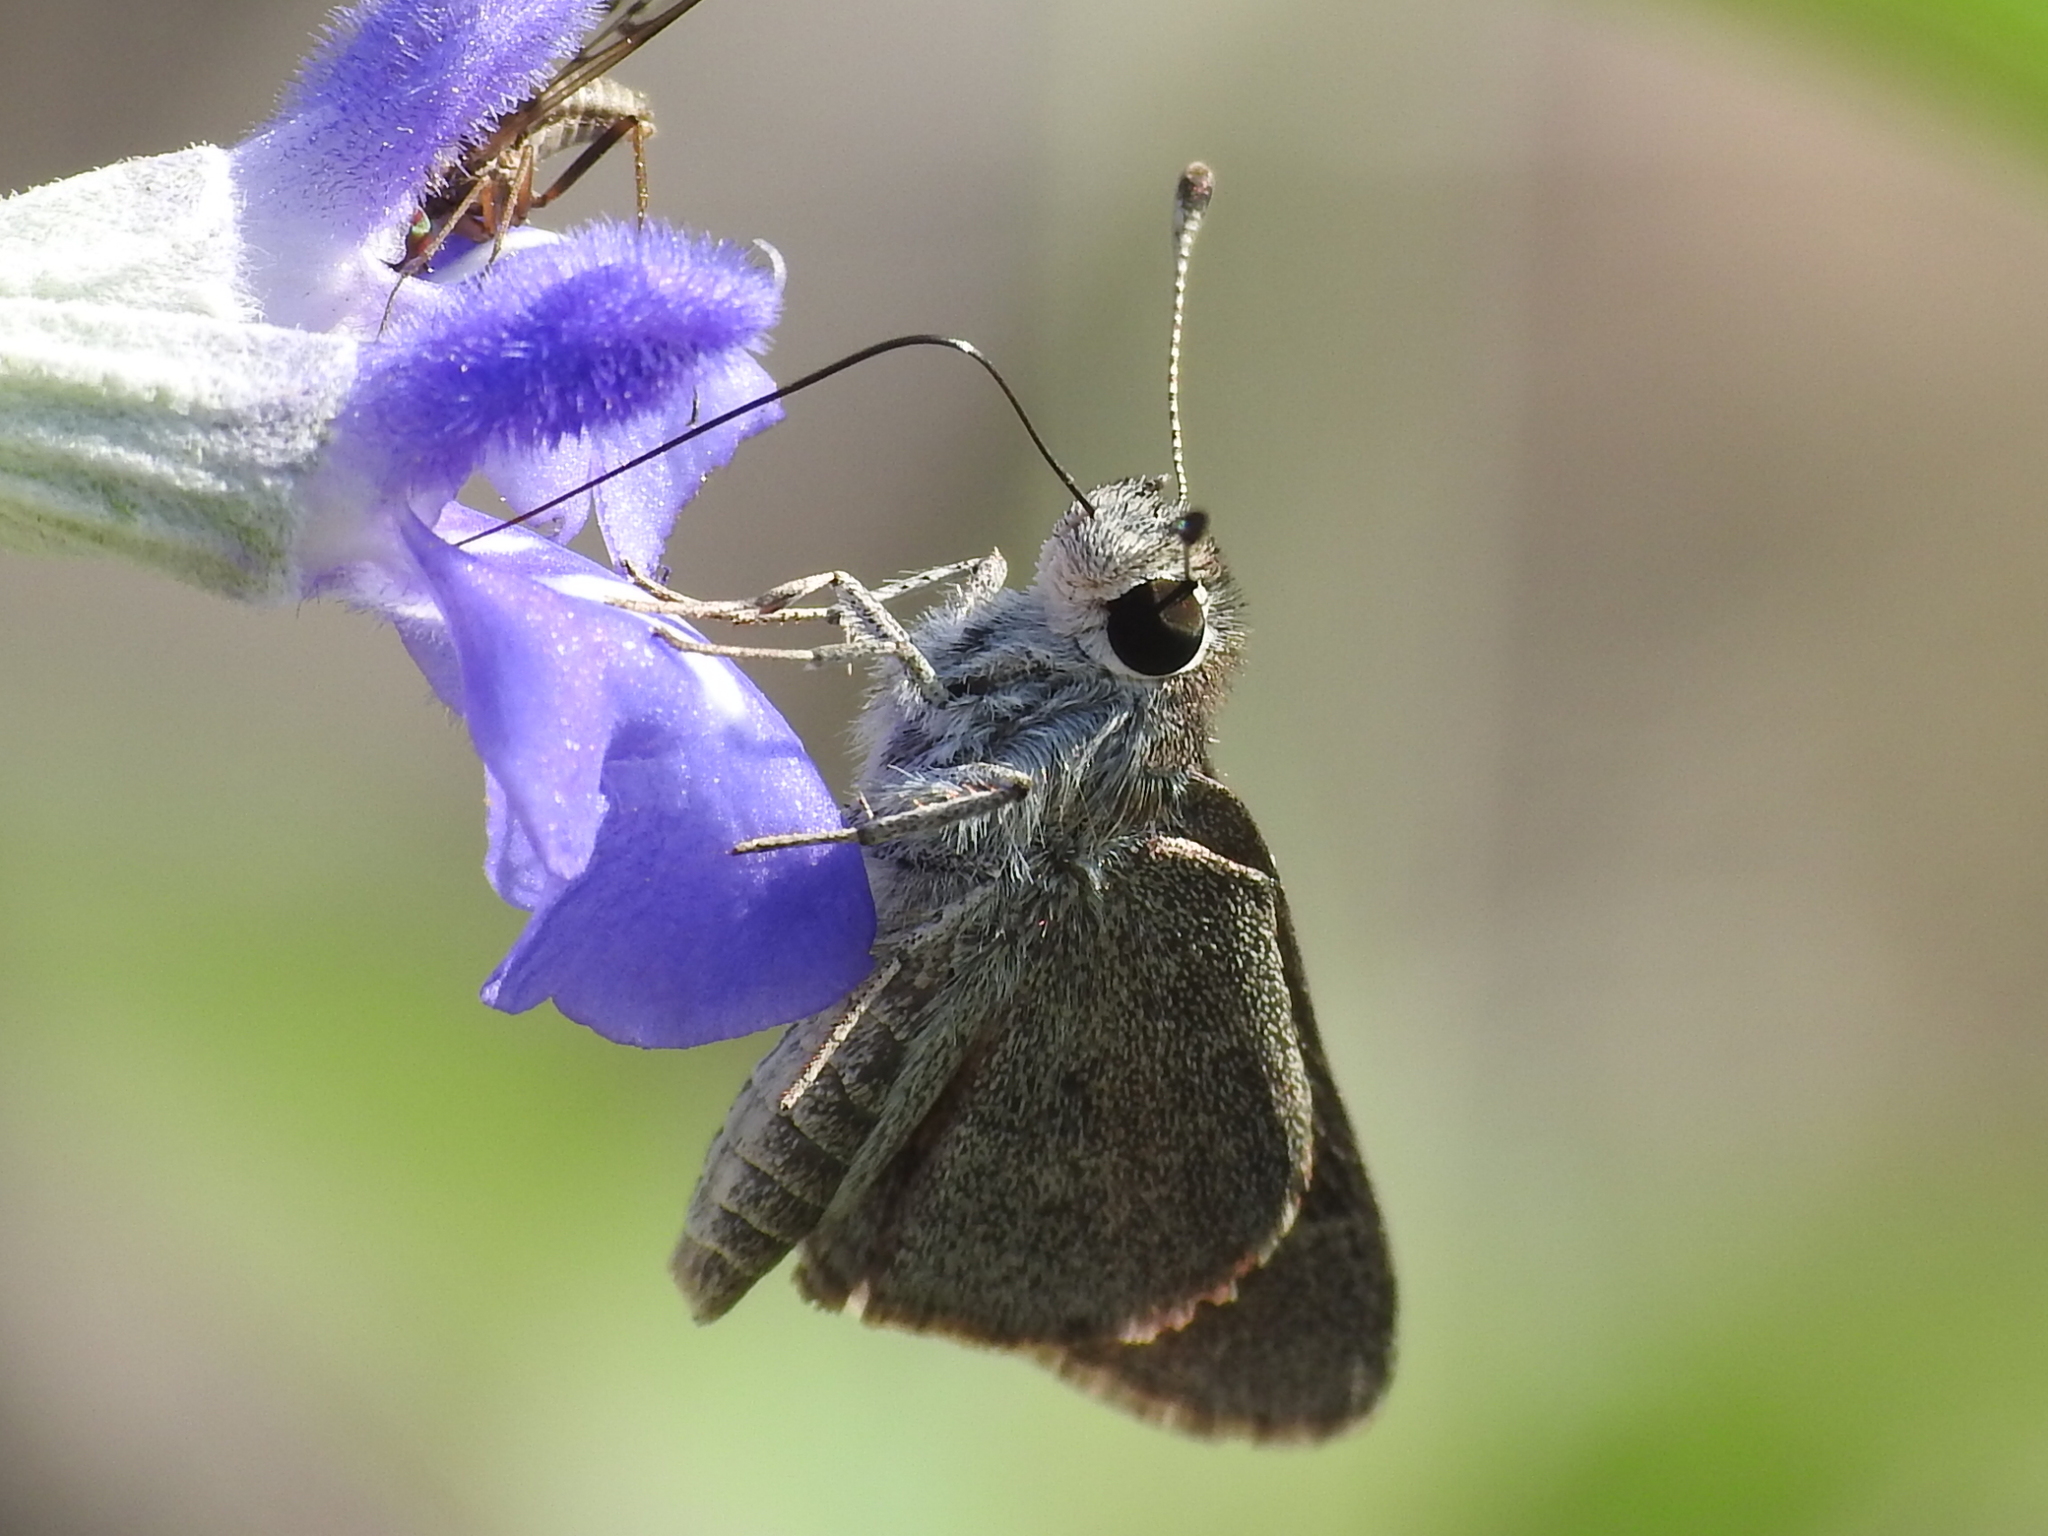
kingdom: Animalia
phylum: Arthropoda
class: Insecta
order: Lepidoptera
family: Hesperiidae
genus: Lerodea
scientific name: Lerodea eufala
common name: Eufala skipper
